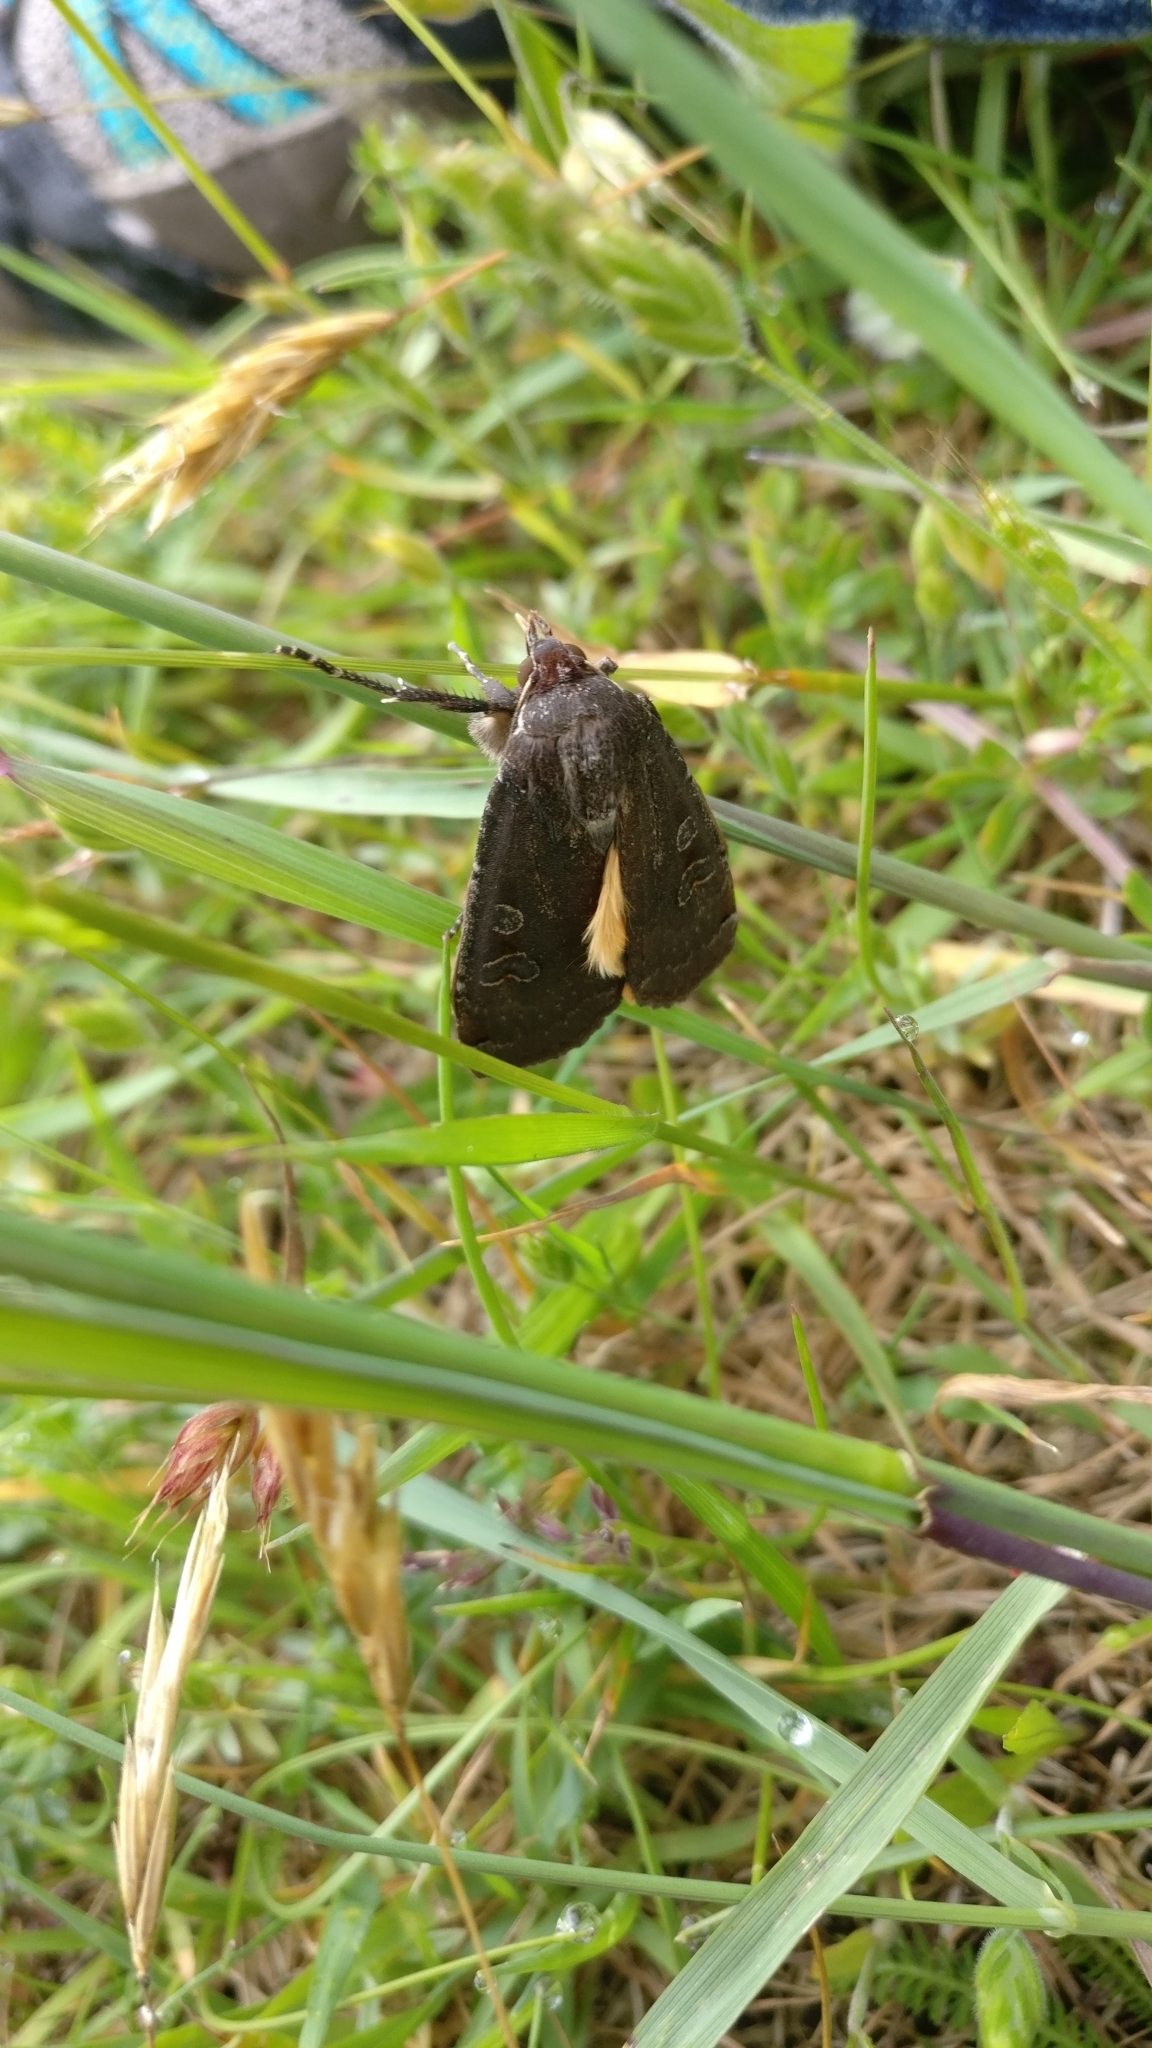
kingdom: Animalia
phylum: Arthropoda
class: Insecta
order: Lepidoptera
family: Noctuidae
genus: Noctua
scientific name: Noctua pronuba
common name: Large yellow underwing
